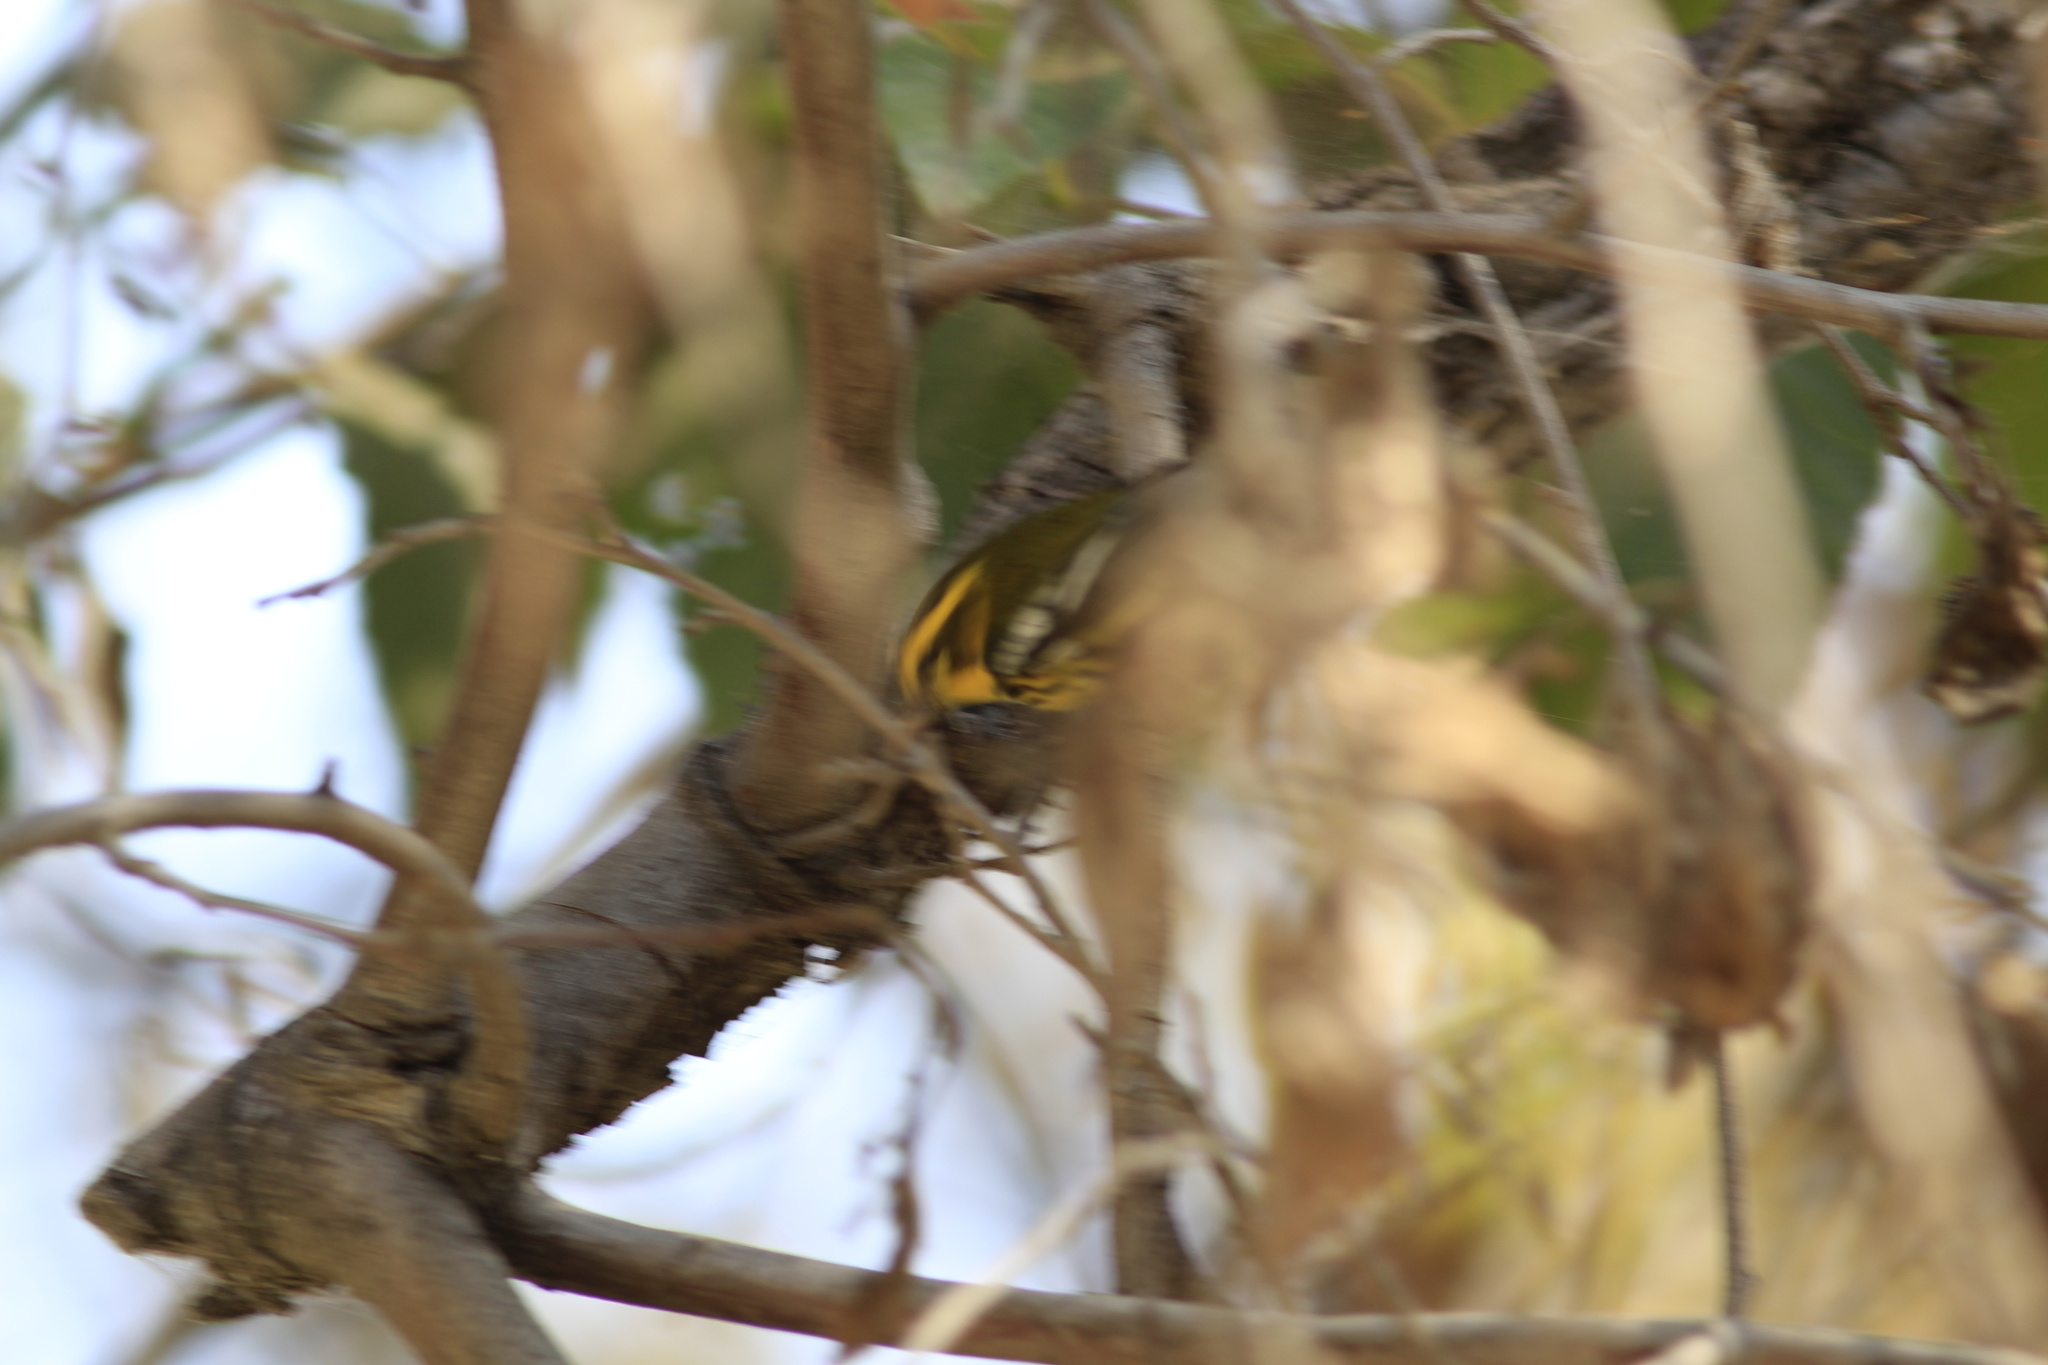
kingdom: Animalia
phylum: Chordata
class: Aves
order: Passeriformes
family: Parulidae
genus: Setophaga
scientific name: Setophaga townsendi
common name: Townsend's warbler
